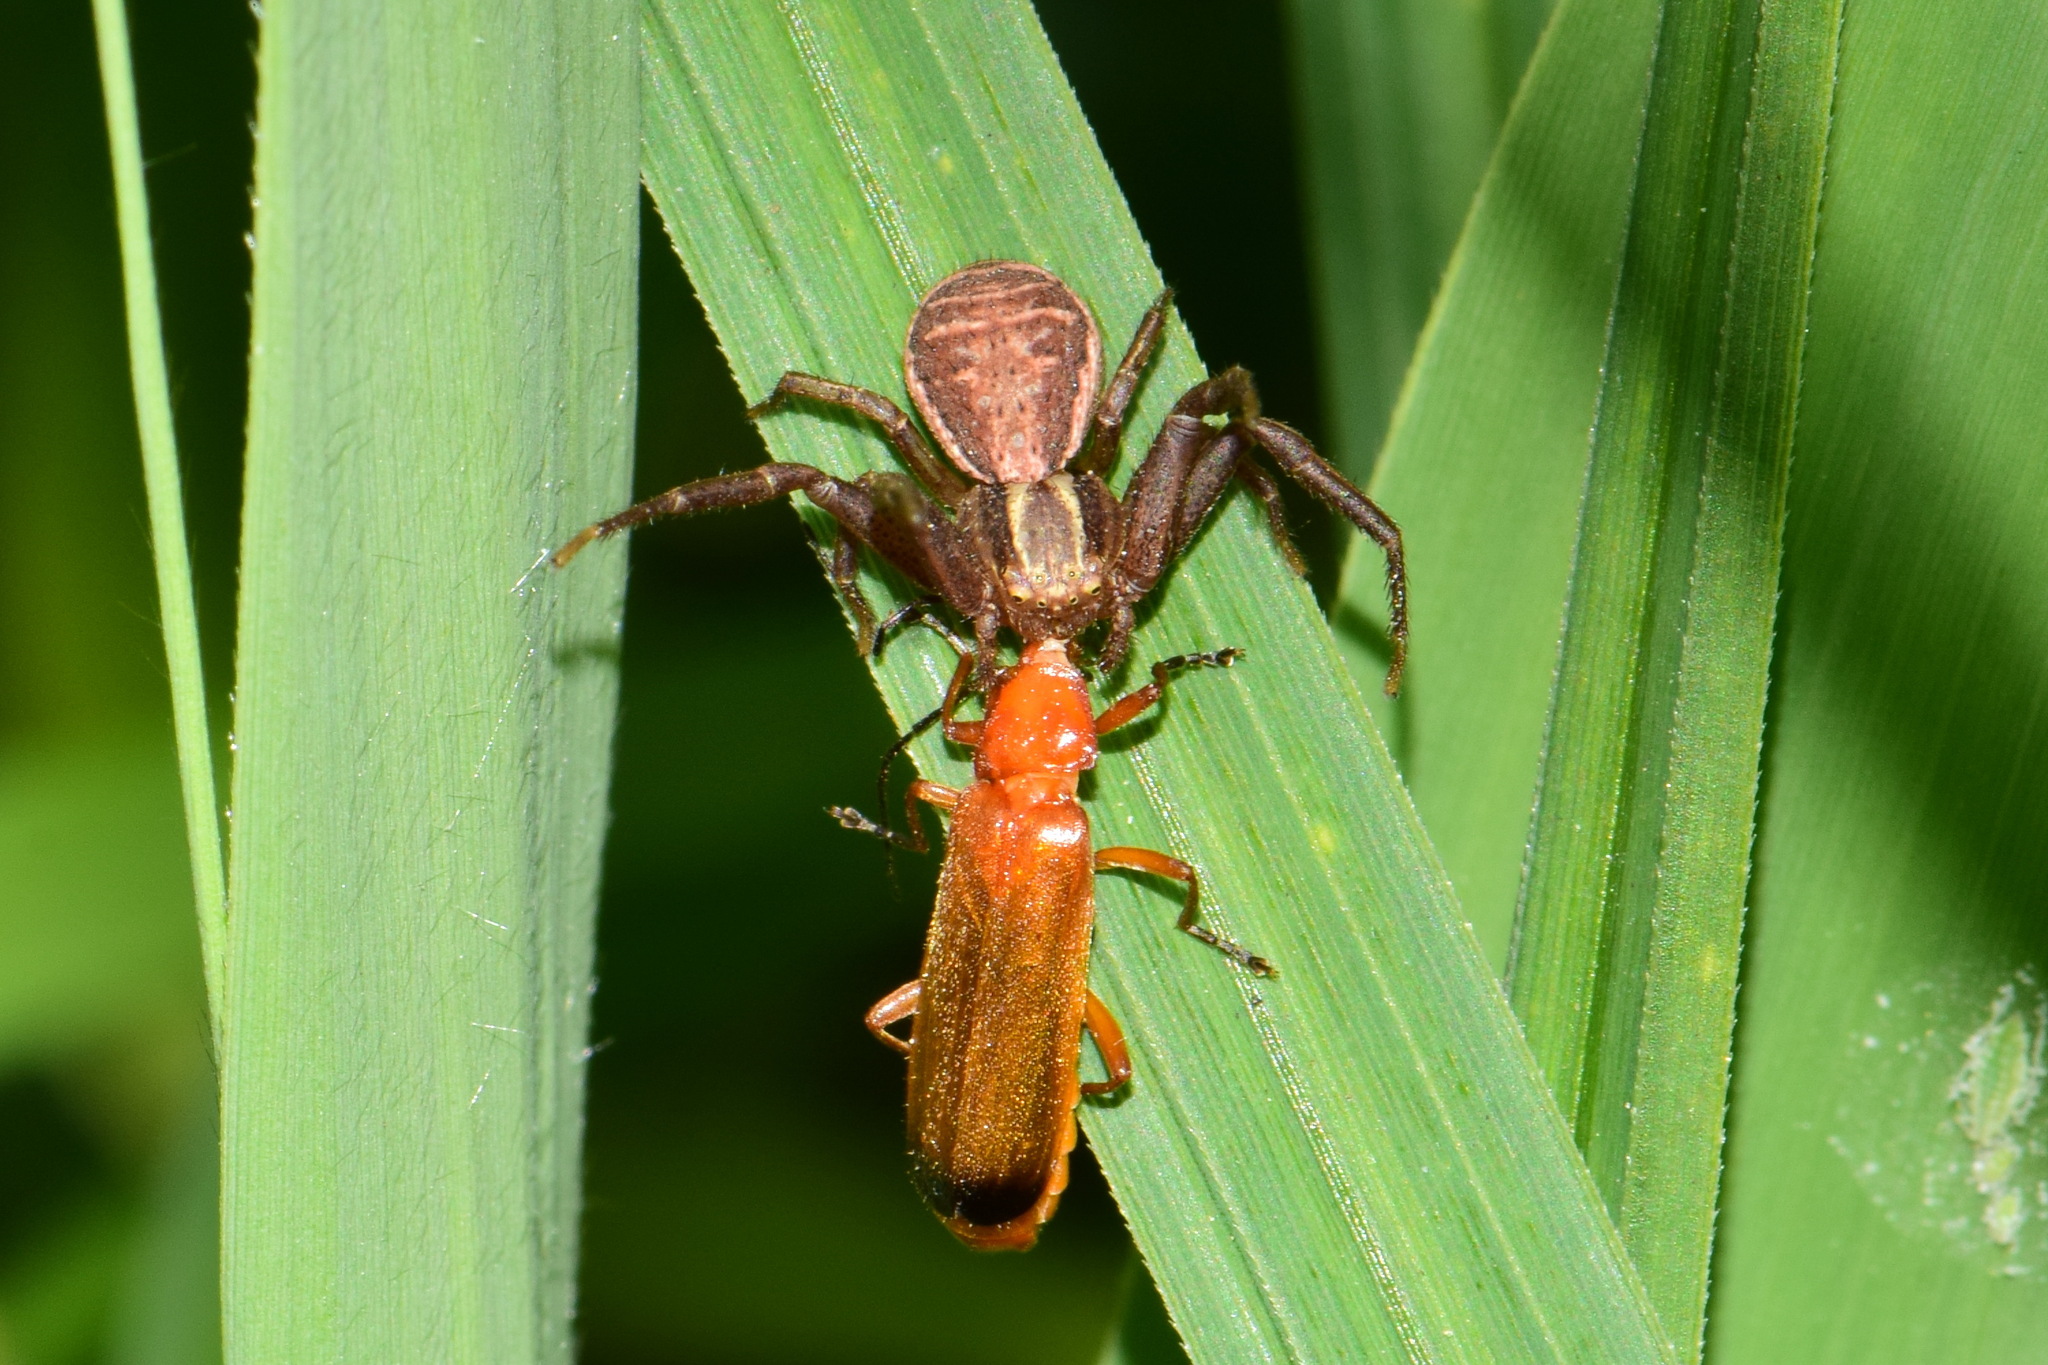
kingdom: Animalia
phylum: Arthropoda
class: Arachnida
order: Araneae
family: Thomisidae
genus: Xysticus
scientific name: Xysticus ulmi
